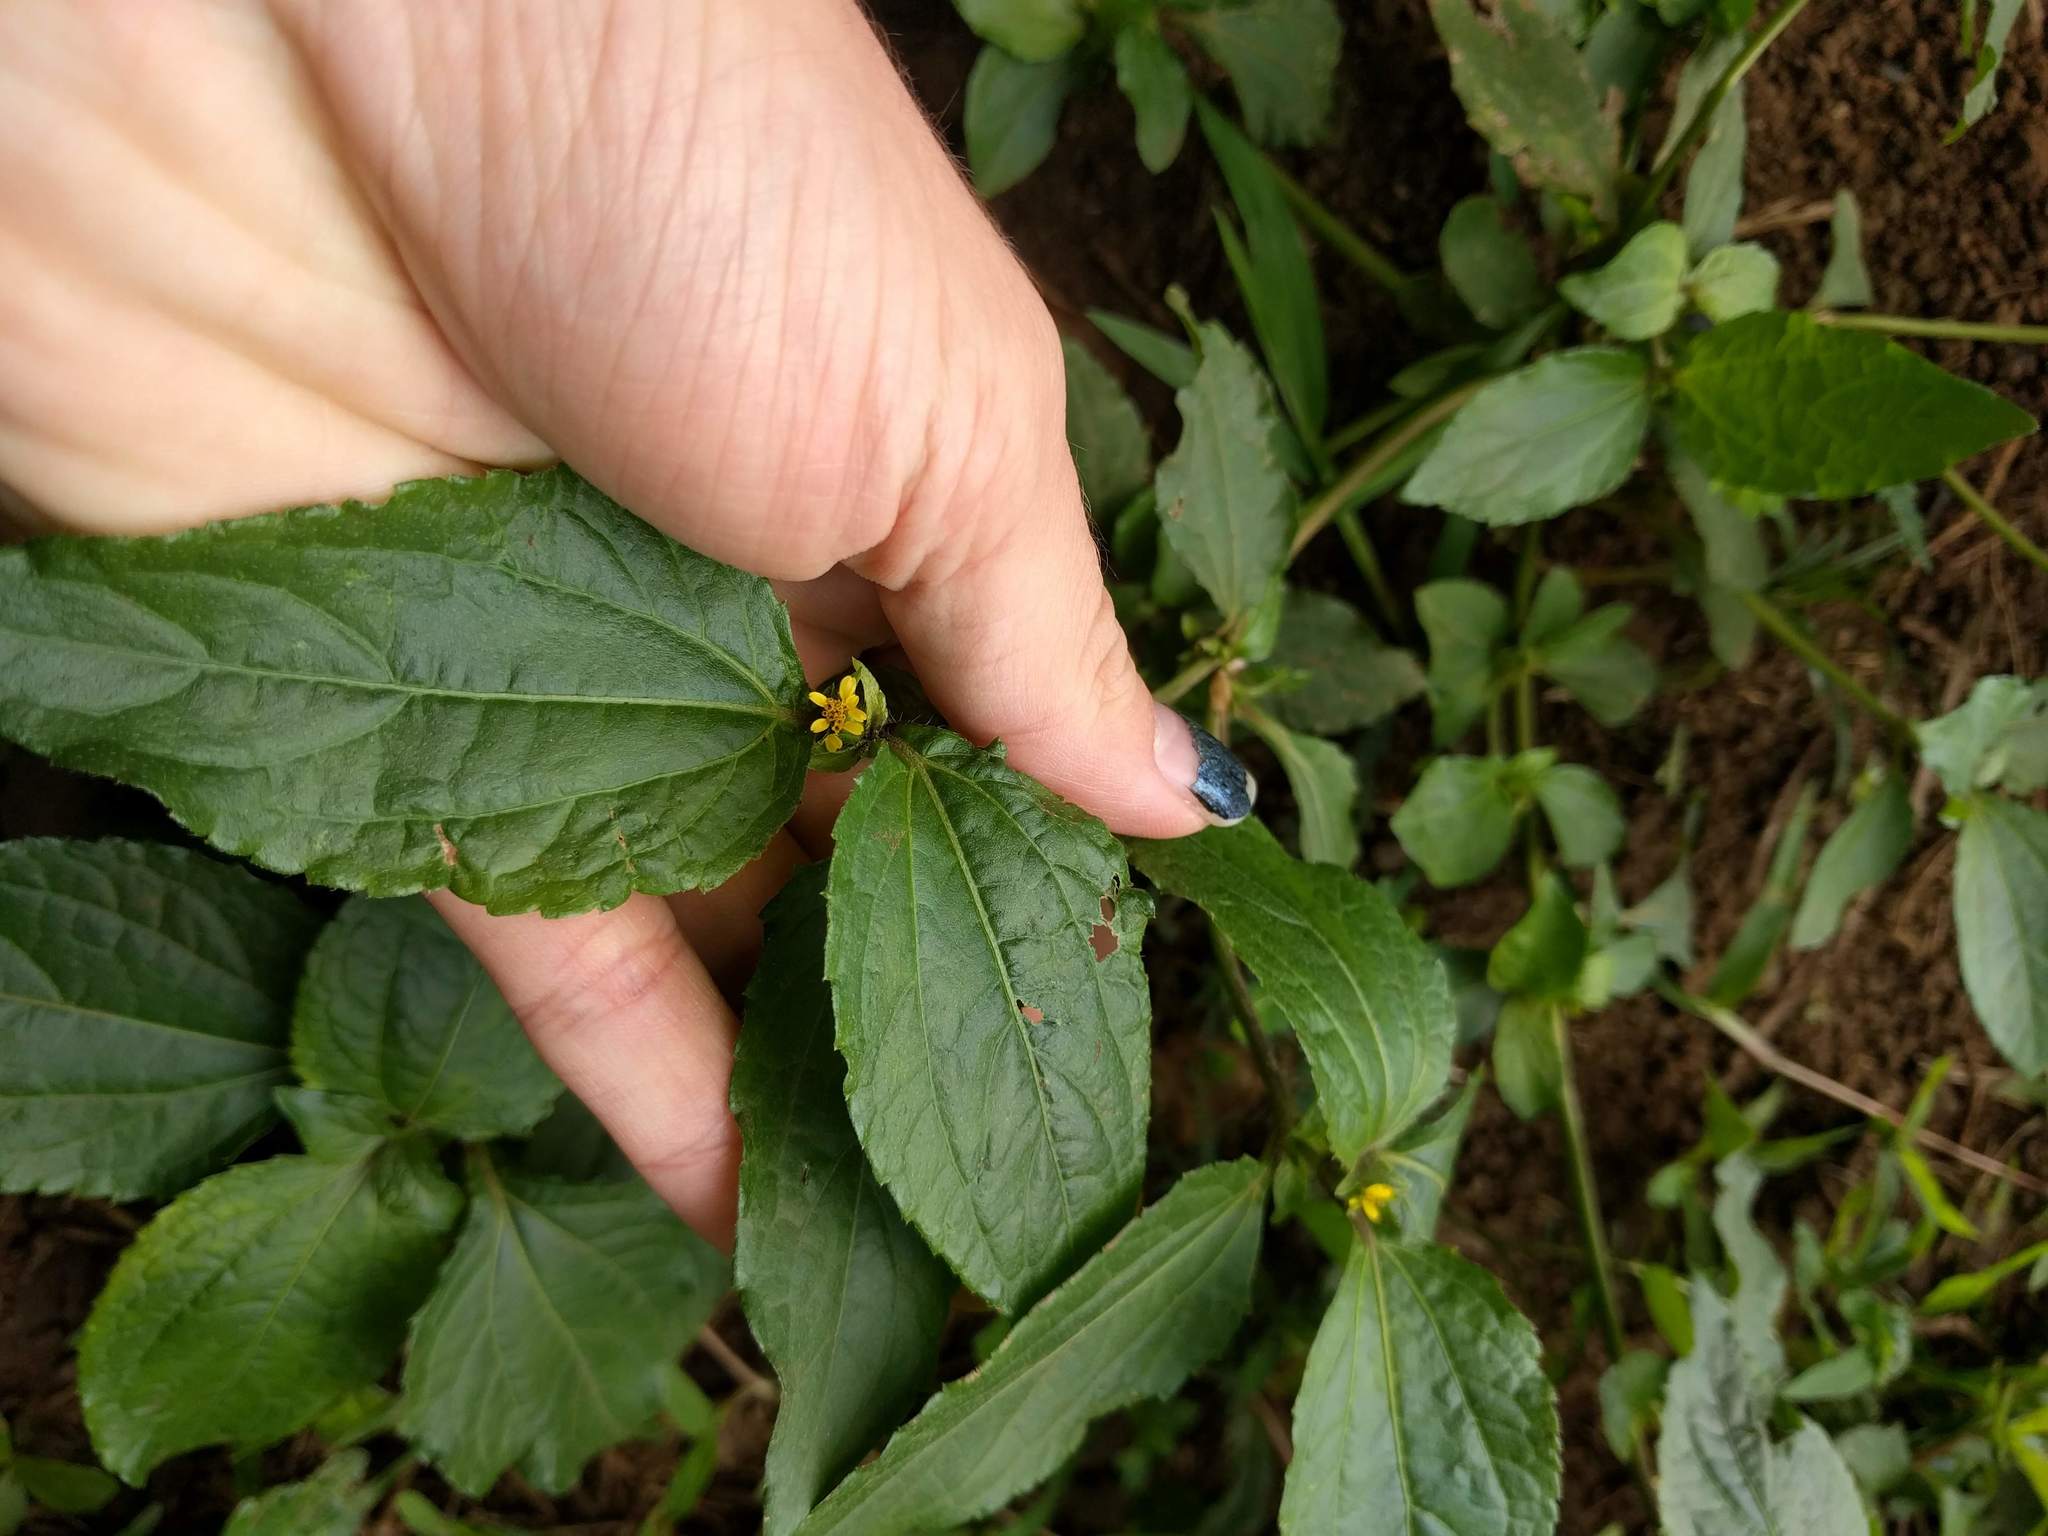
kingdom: Plantae
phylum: Tracheophyta
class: Magnoliopsida
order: Asterales
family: Asteraceae
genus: Synedrella
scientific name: Synedrella nodiflora
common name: Nodeweed
